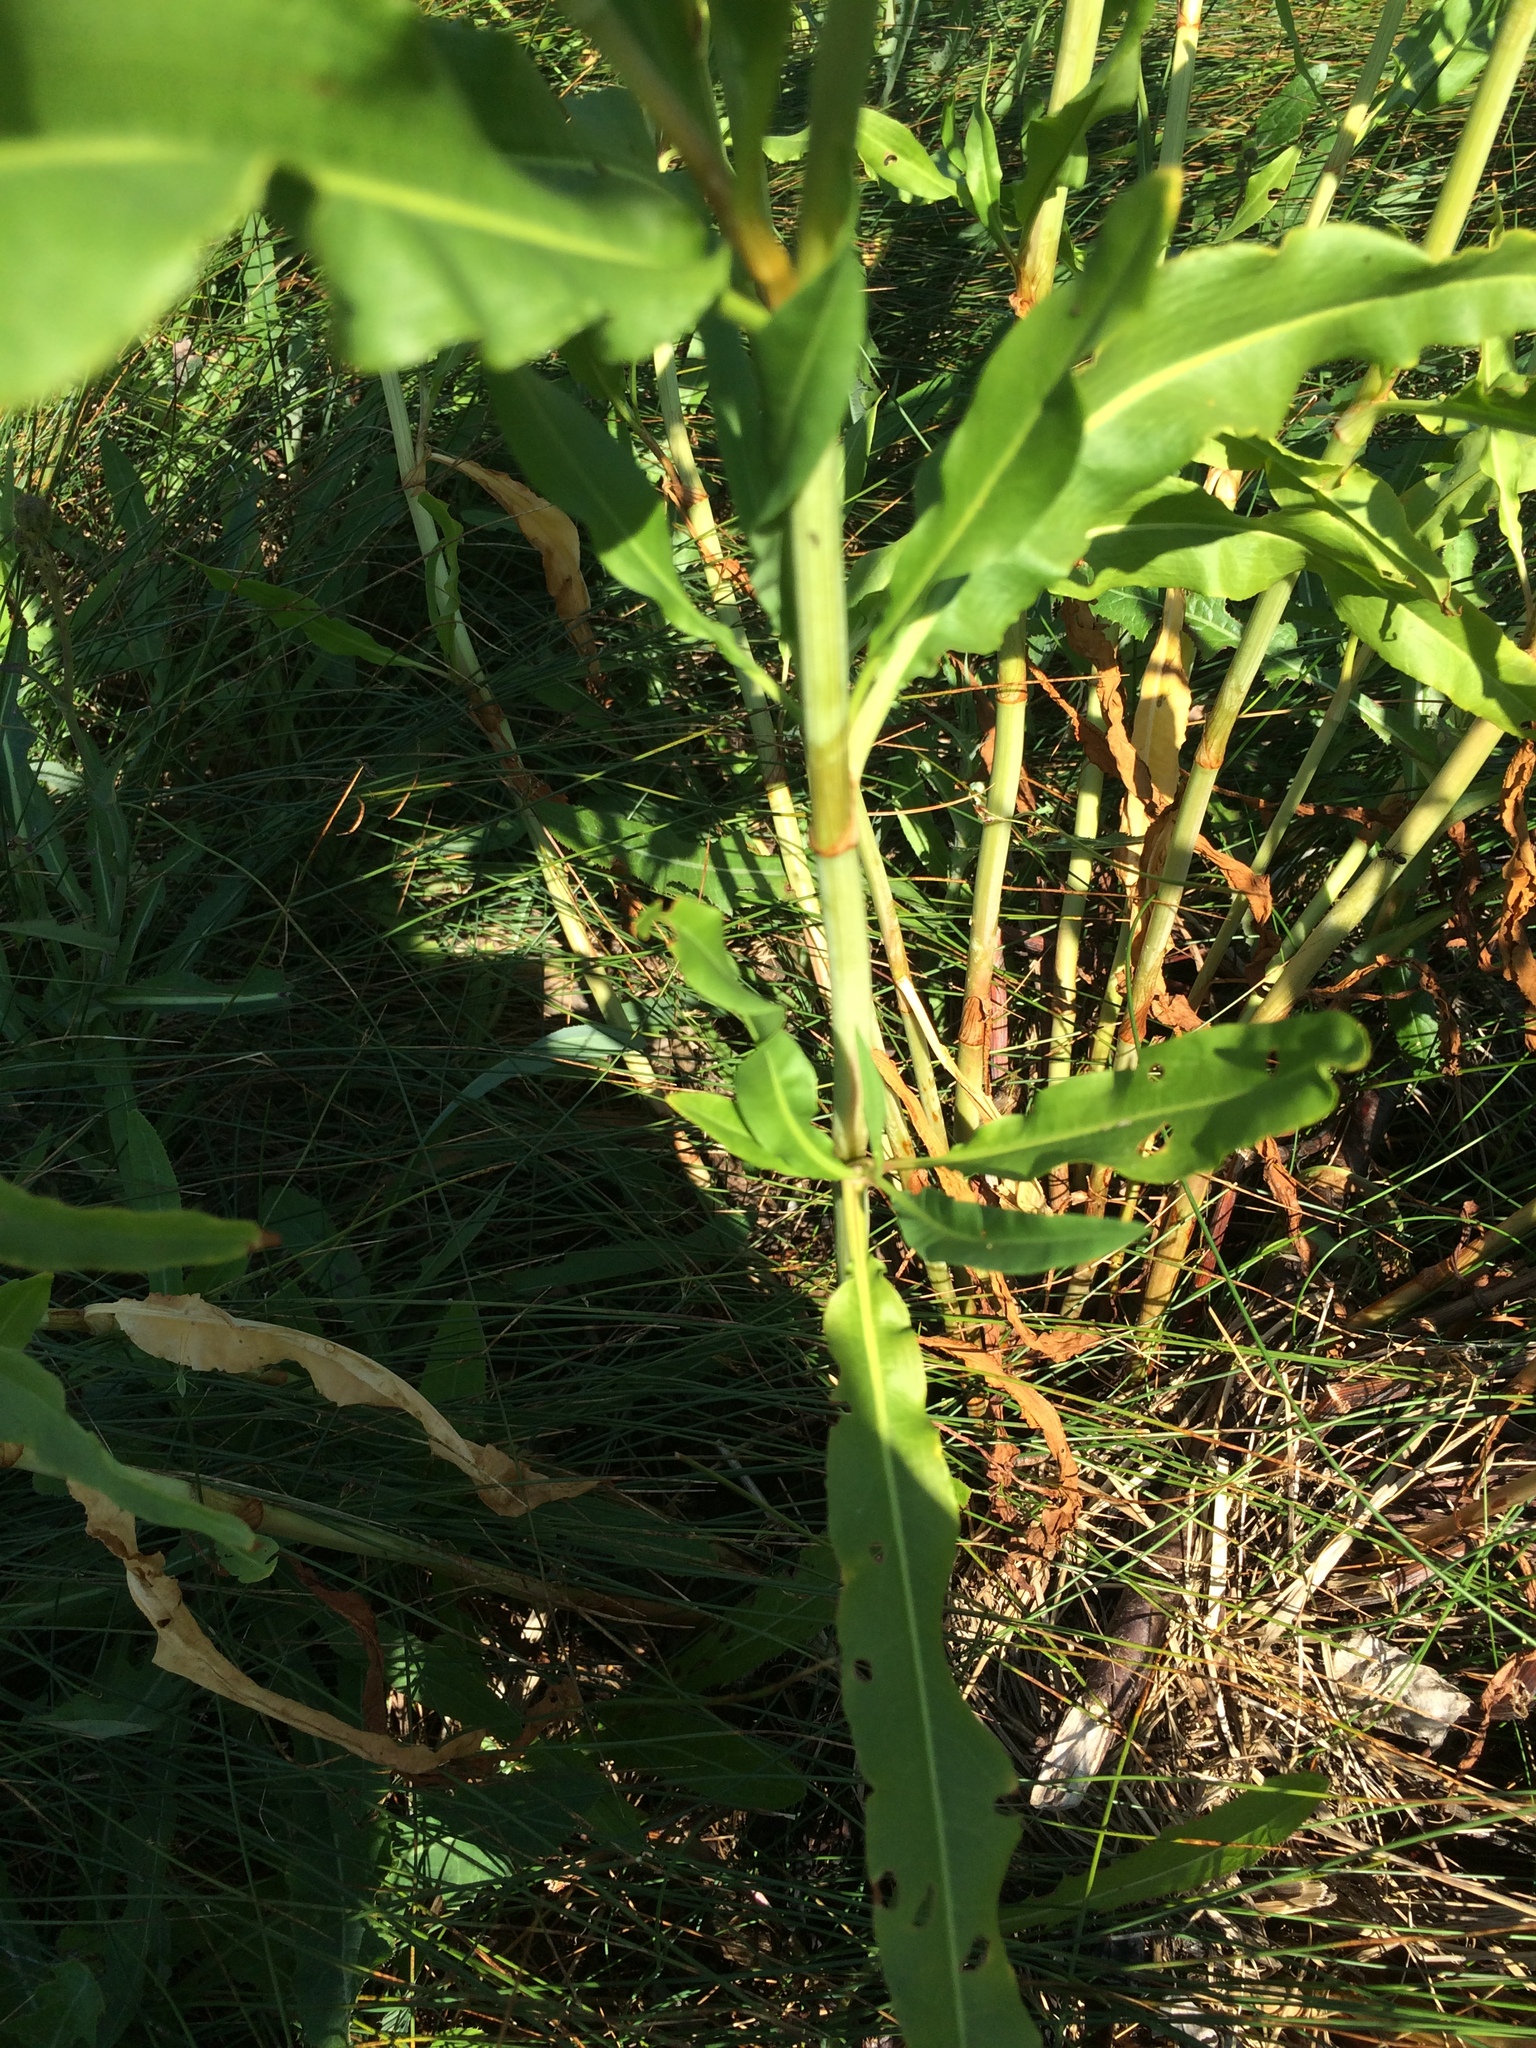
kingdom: Plantae
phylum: Tracheophyta
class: Magnoliopsida
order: Caryophyllales
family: Polygonaceae
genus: Rumex
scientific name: Rumex pallidus
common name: Large-tuberculed dock
